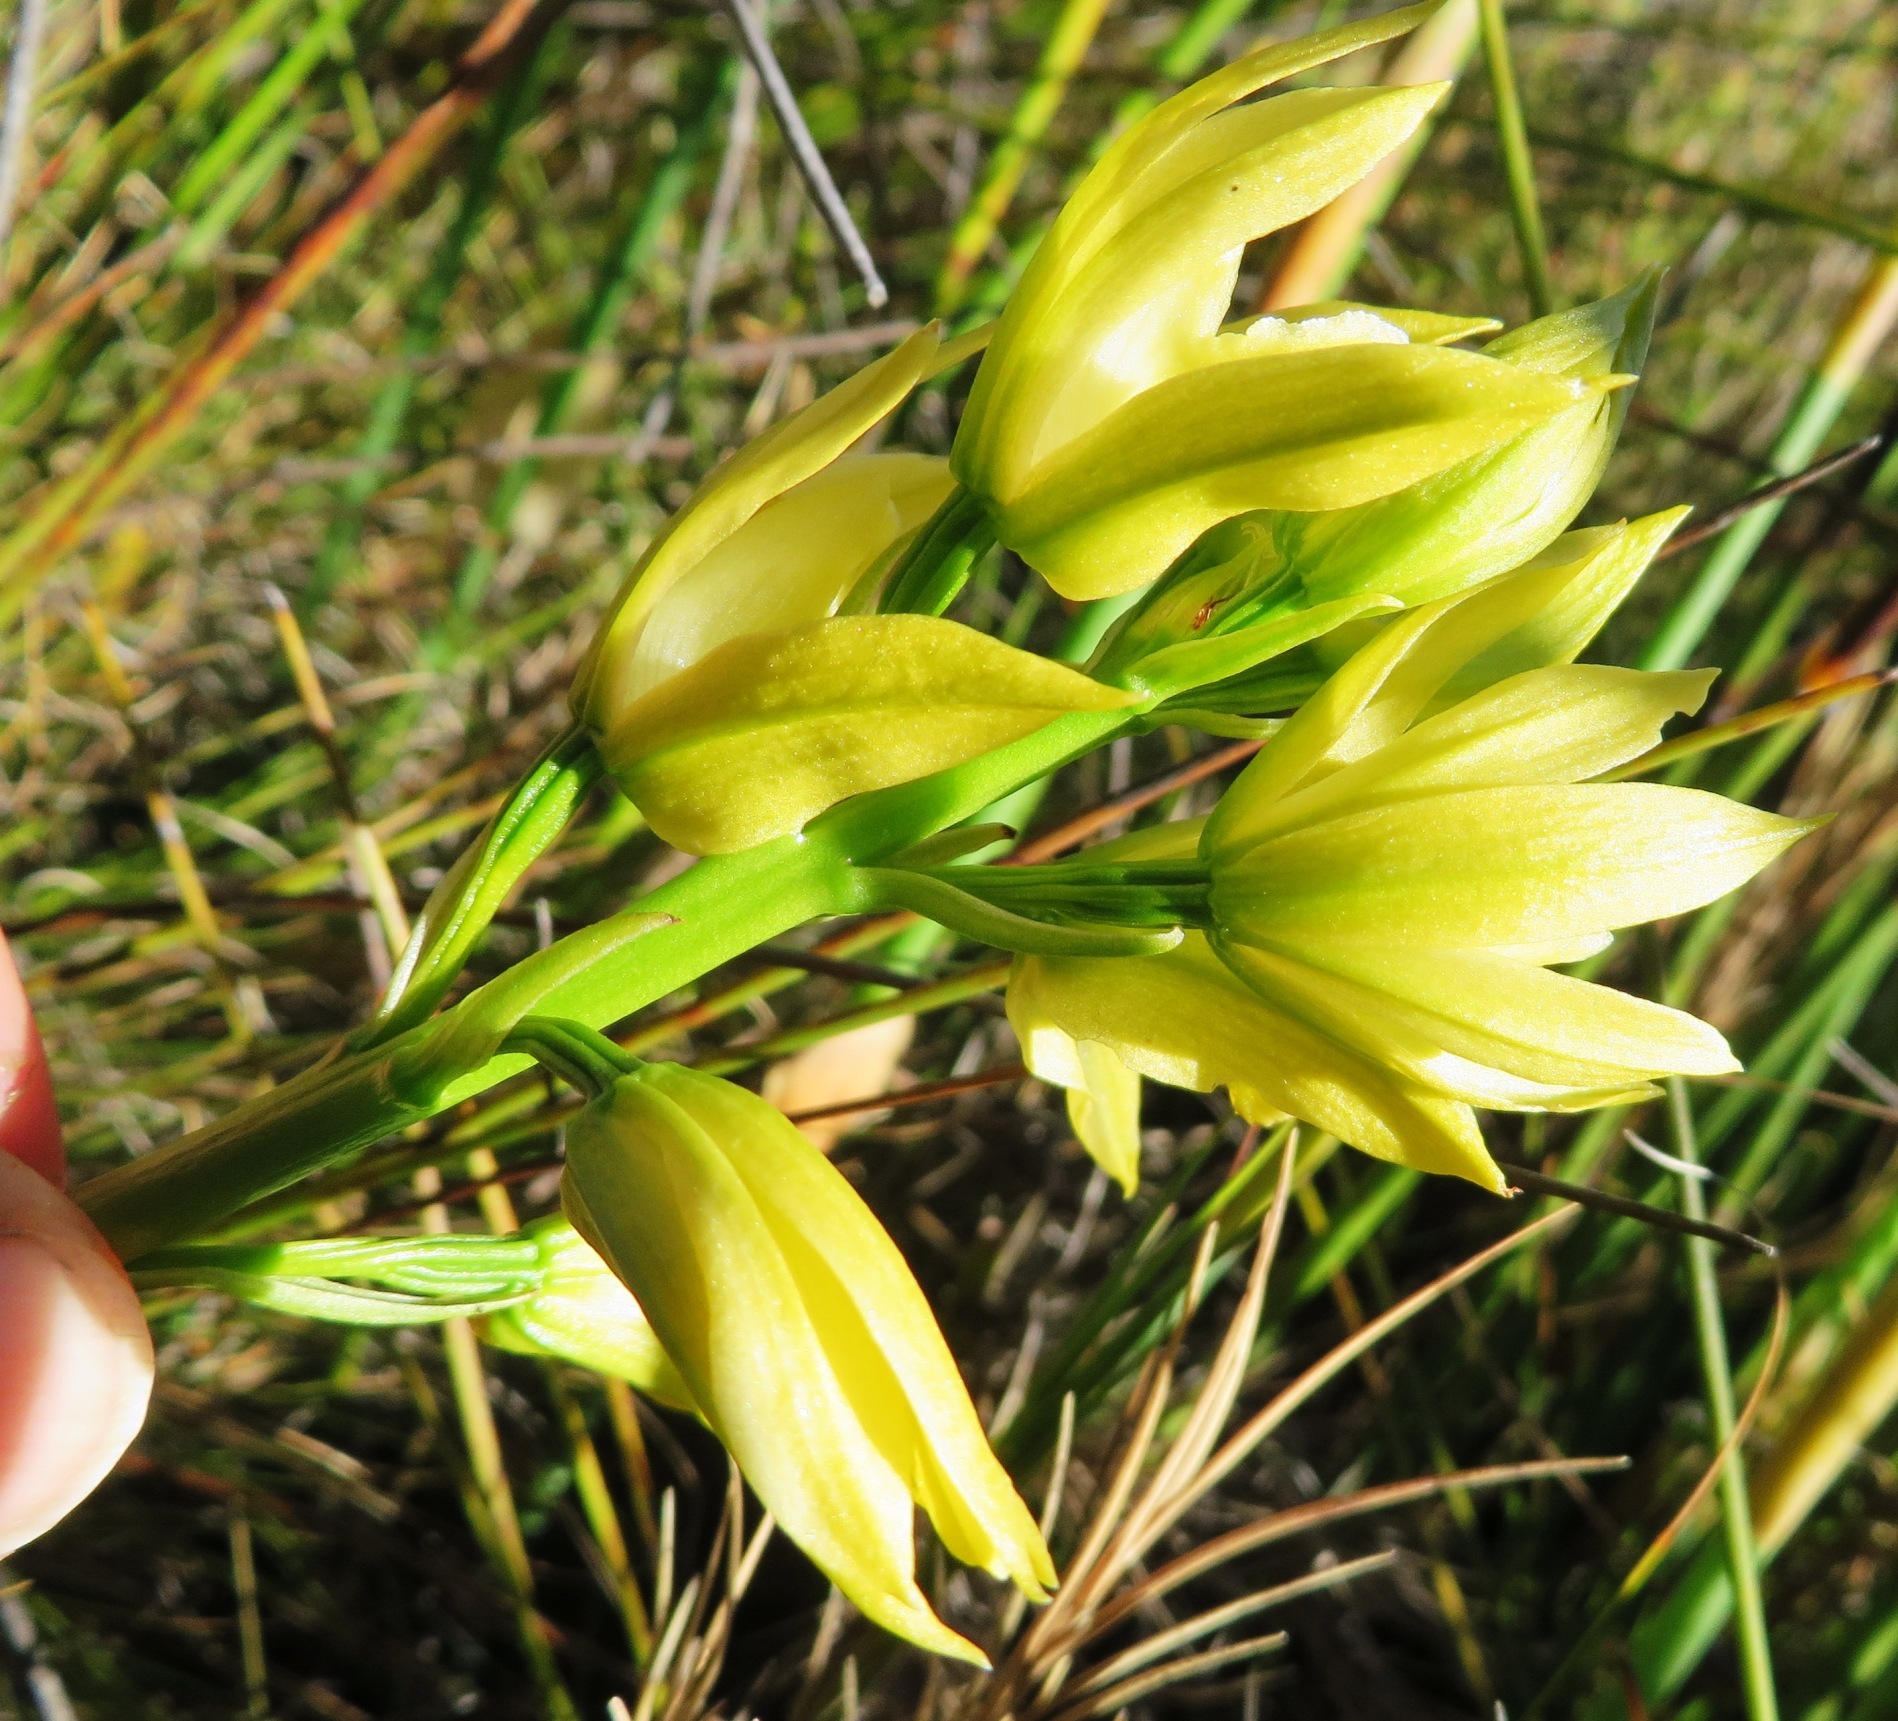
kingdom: Plantae
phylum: Tracheophyta
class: Liliopsida
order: Asparagales
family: Orchidaceae
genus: Eulophia
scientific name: Eulophia tabularis
